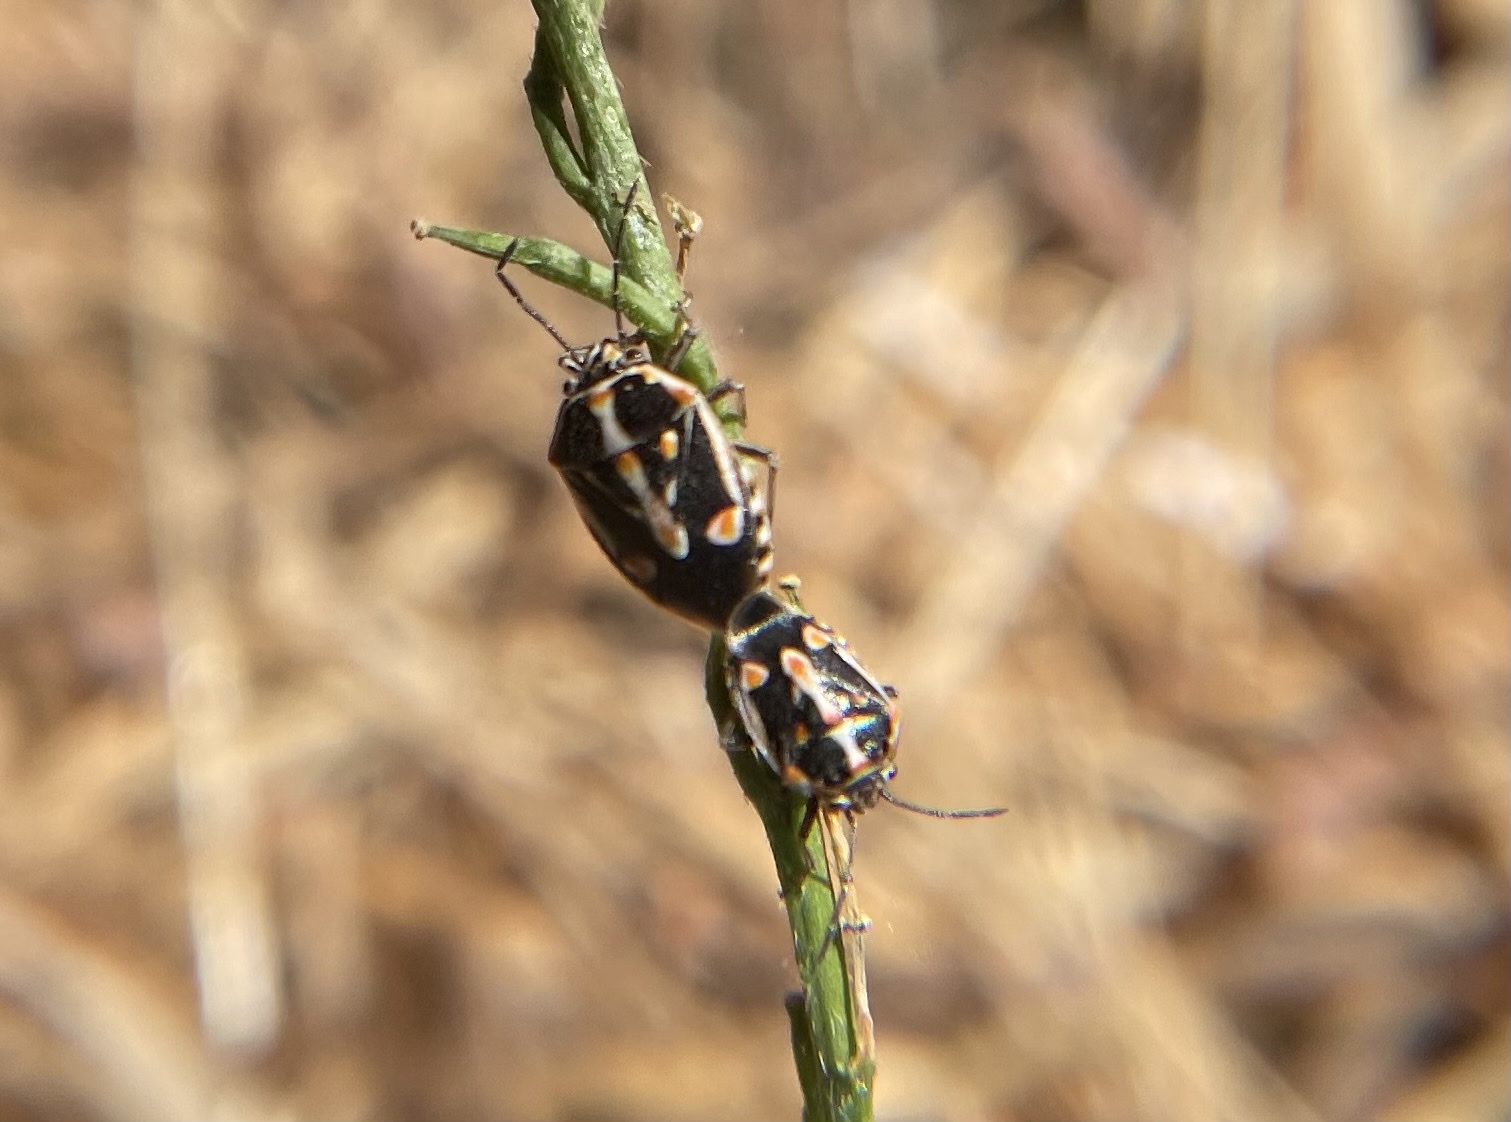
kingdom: Animalia
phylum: Arthropoda
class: Insecta
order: Hemiptera
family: Pentatomidae
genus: Bagrada
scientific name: Bagrada hilaris
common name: Bagrada bug
